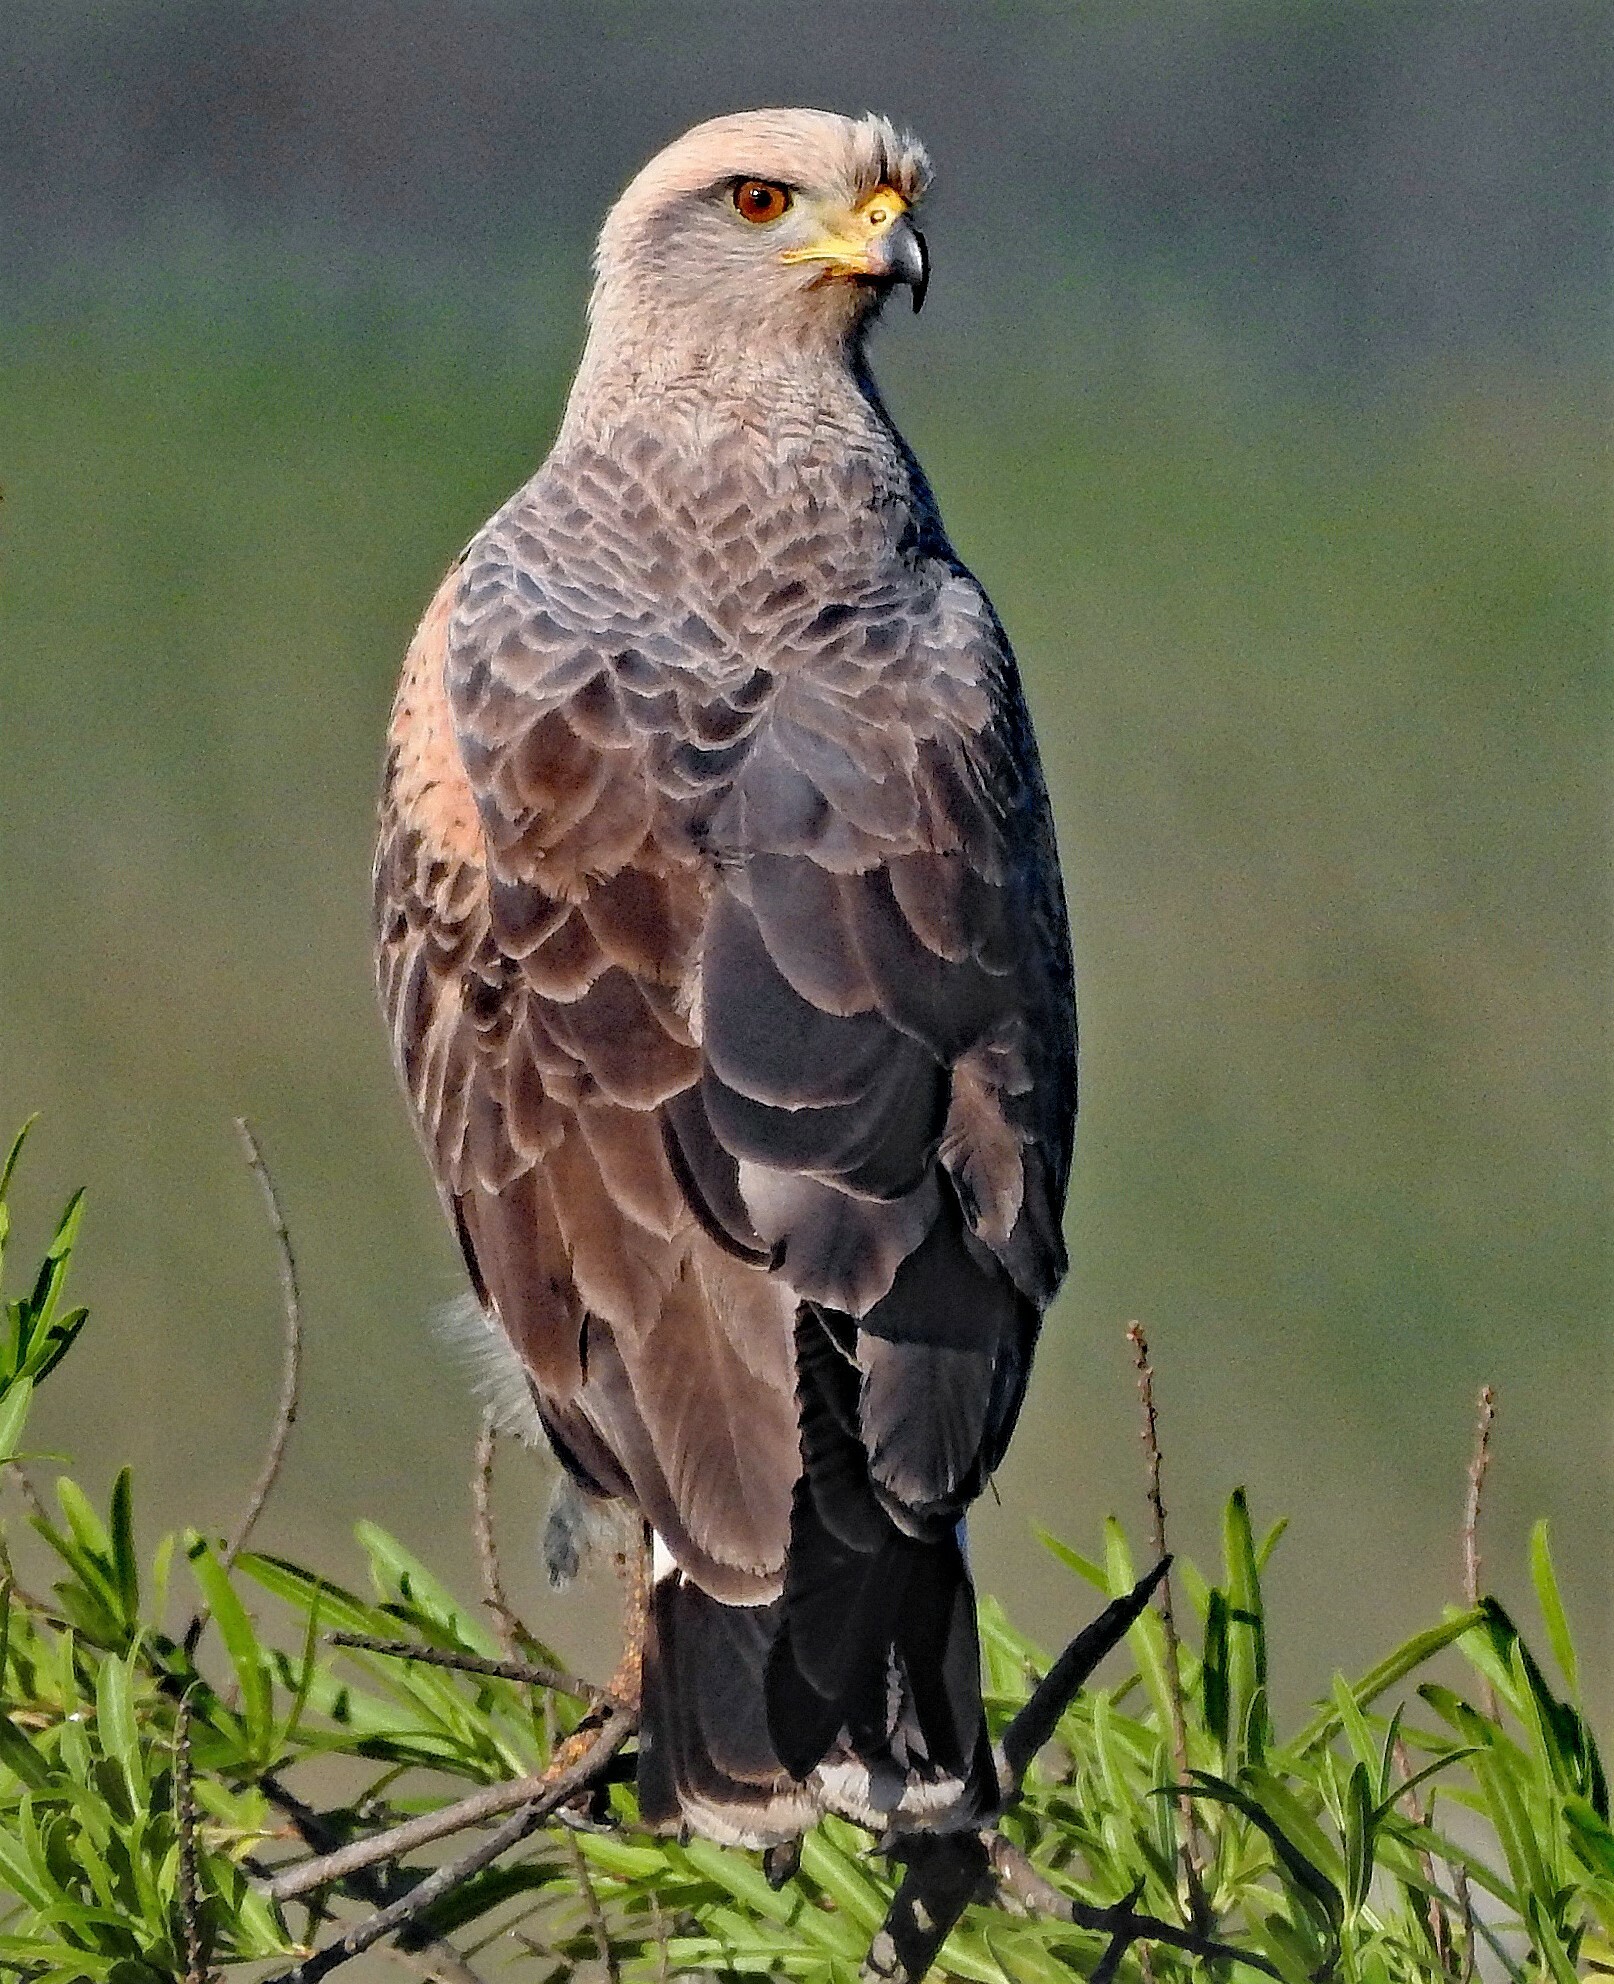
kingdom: Animalia
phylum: Chordata
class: Aves
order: Accipitriformes
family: Accipitridae
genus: Buteogallus
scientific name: Buteogallus meridionalis
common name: Savanna hawk
